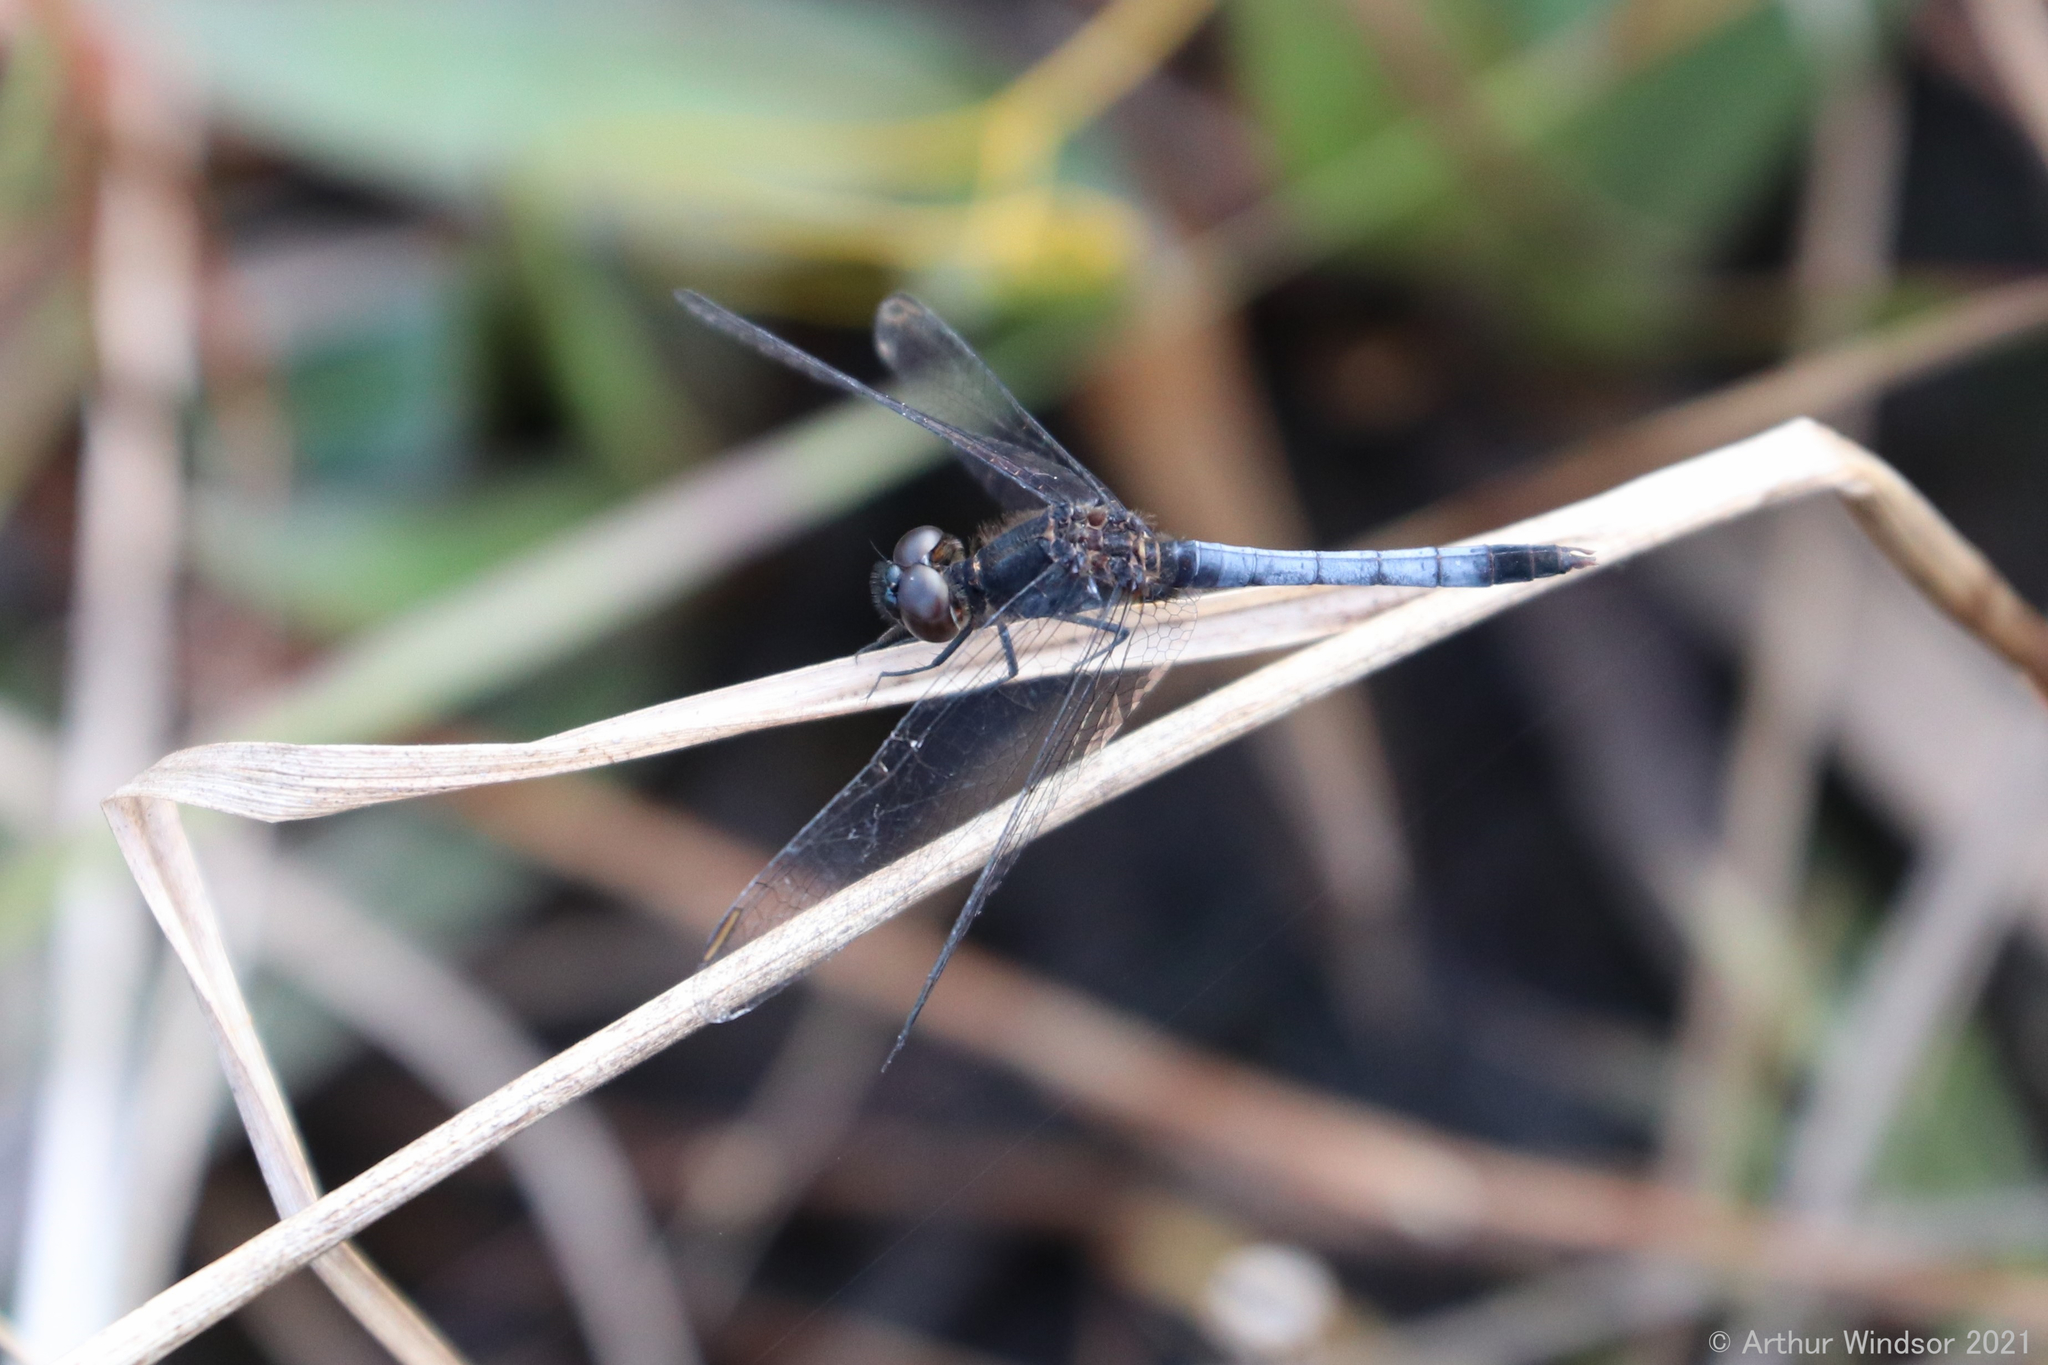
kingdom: Animalia
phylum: Arthropoda
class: Insecta
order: Odonata
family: Libellulidae
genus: Erythrodiplax
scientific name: Erythrodiplax minuscula
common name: Little blue dragonlet
